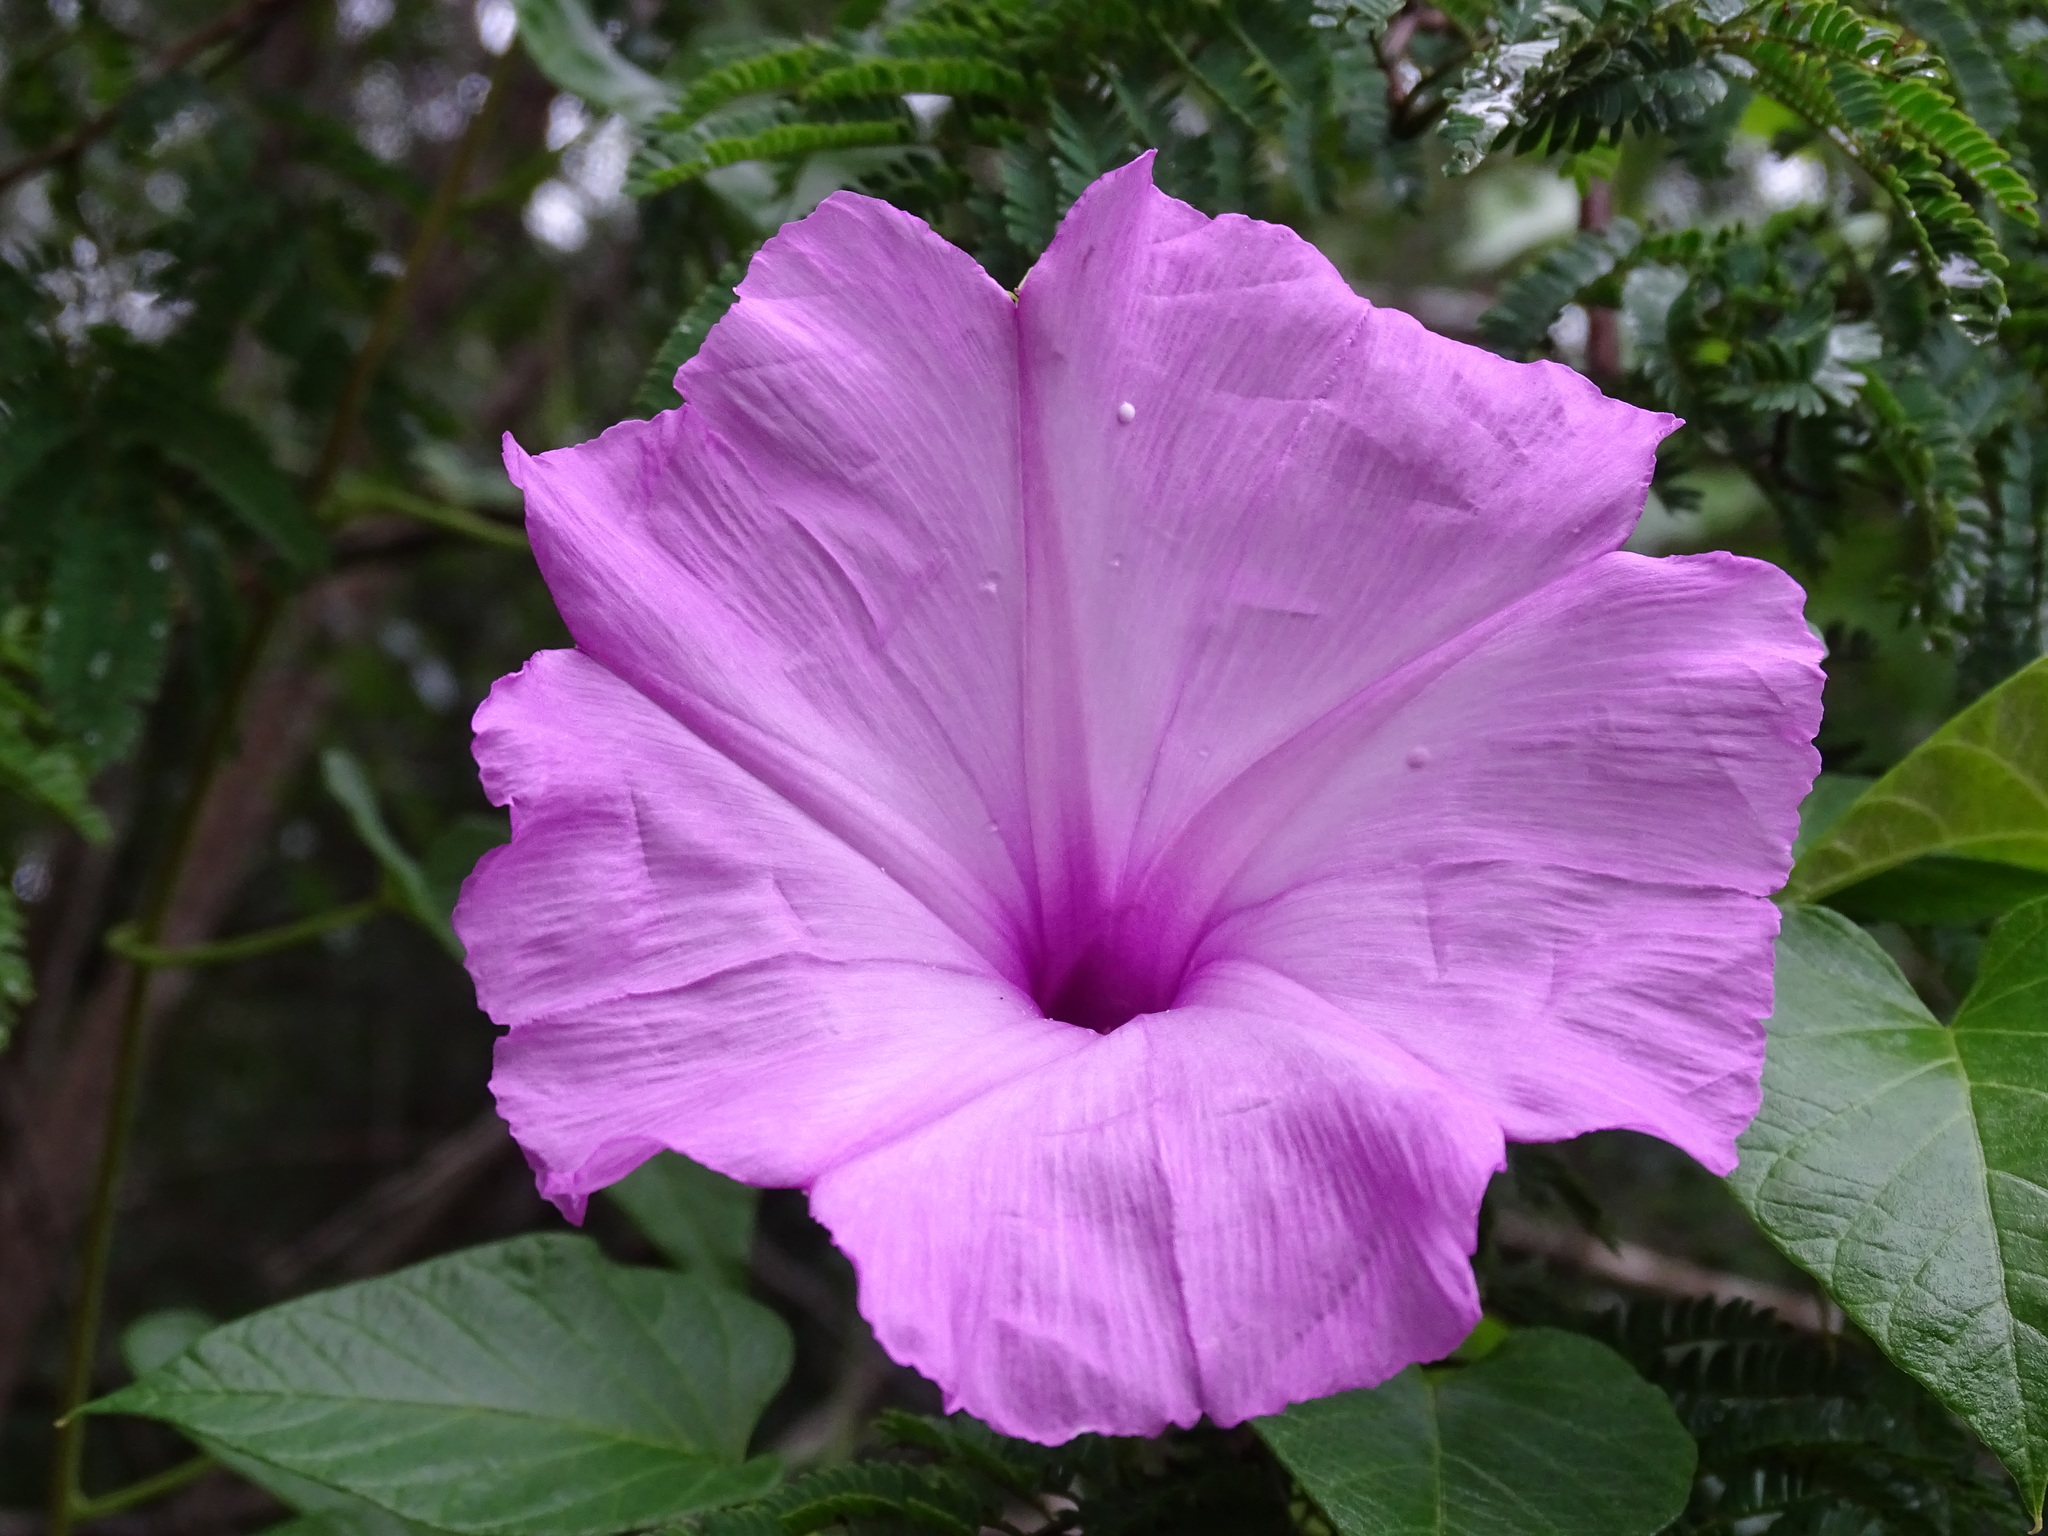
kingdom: Plantae
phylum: Tracheophyta
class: Magnoliopsida
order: Solanales
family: Convolvulaceae
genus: Ipomoea
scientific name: Ipomoea jalapa
